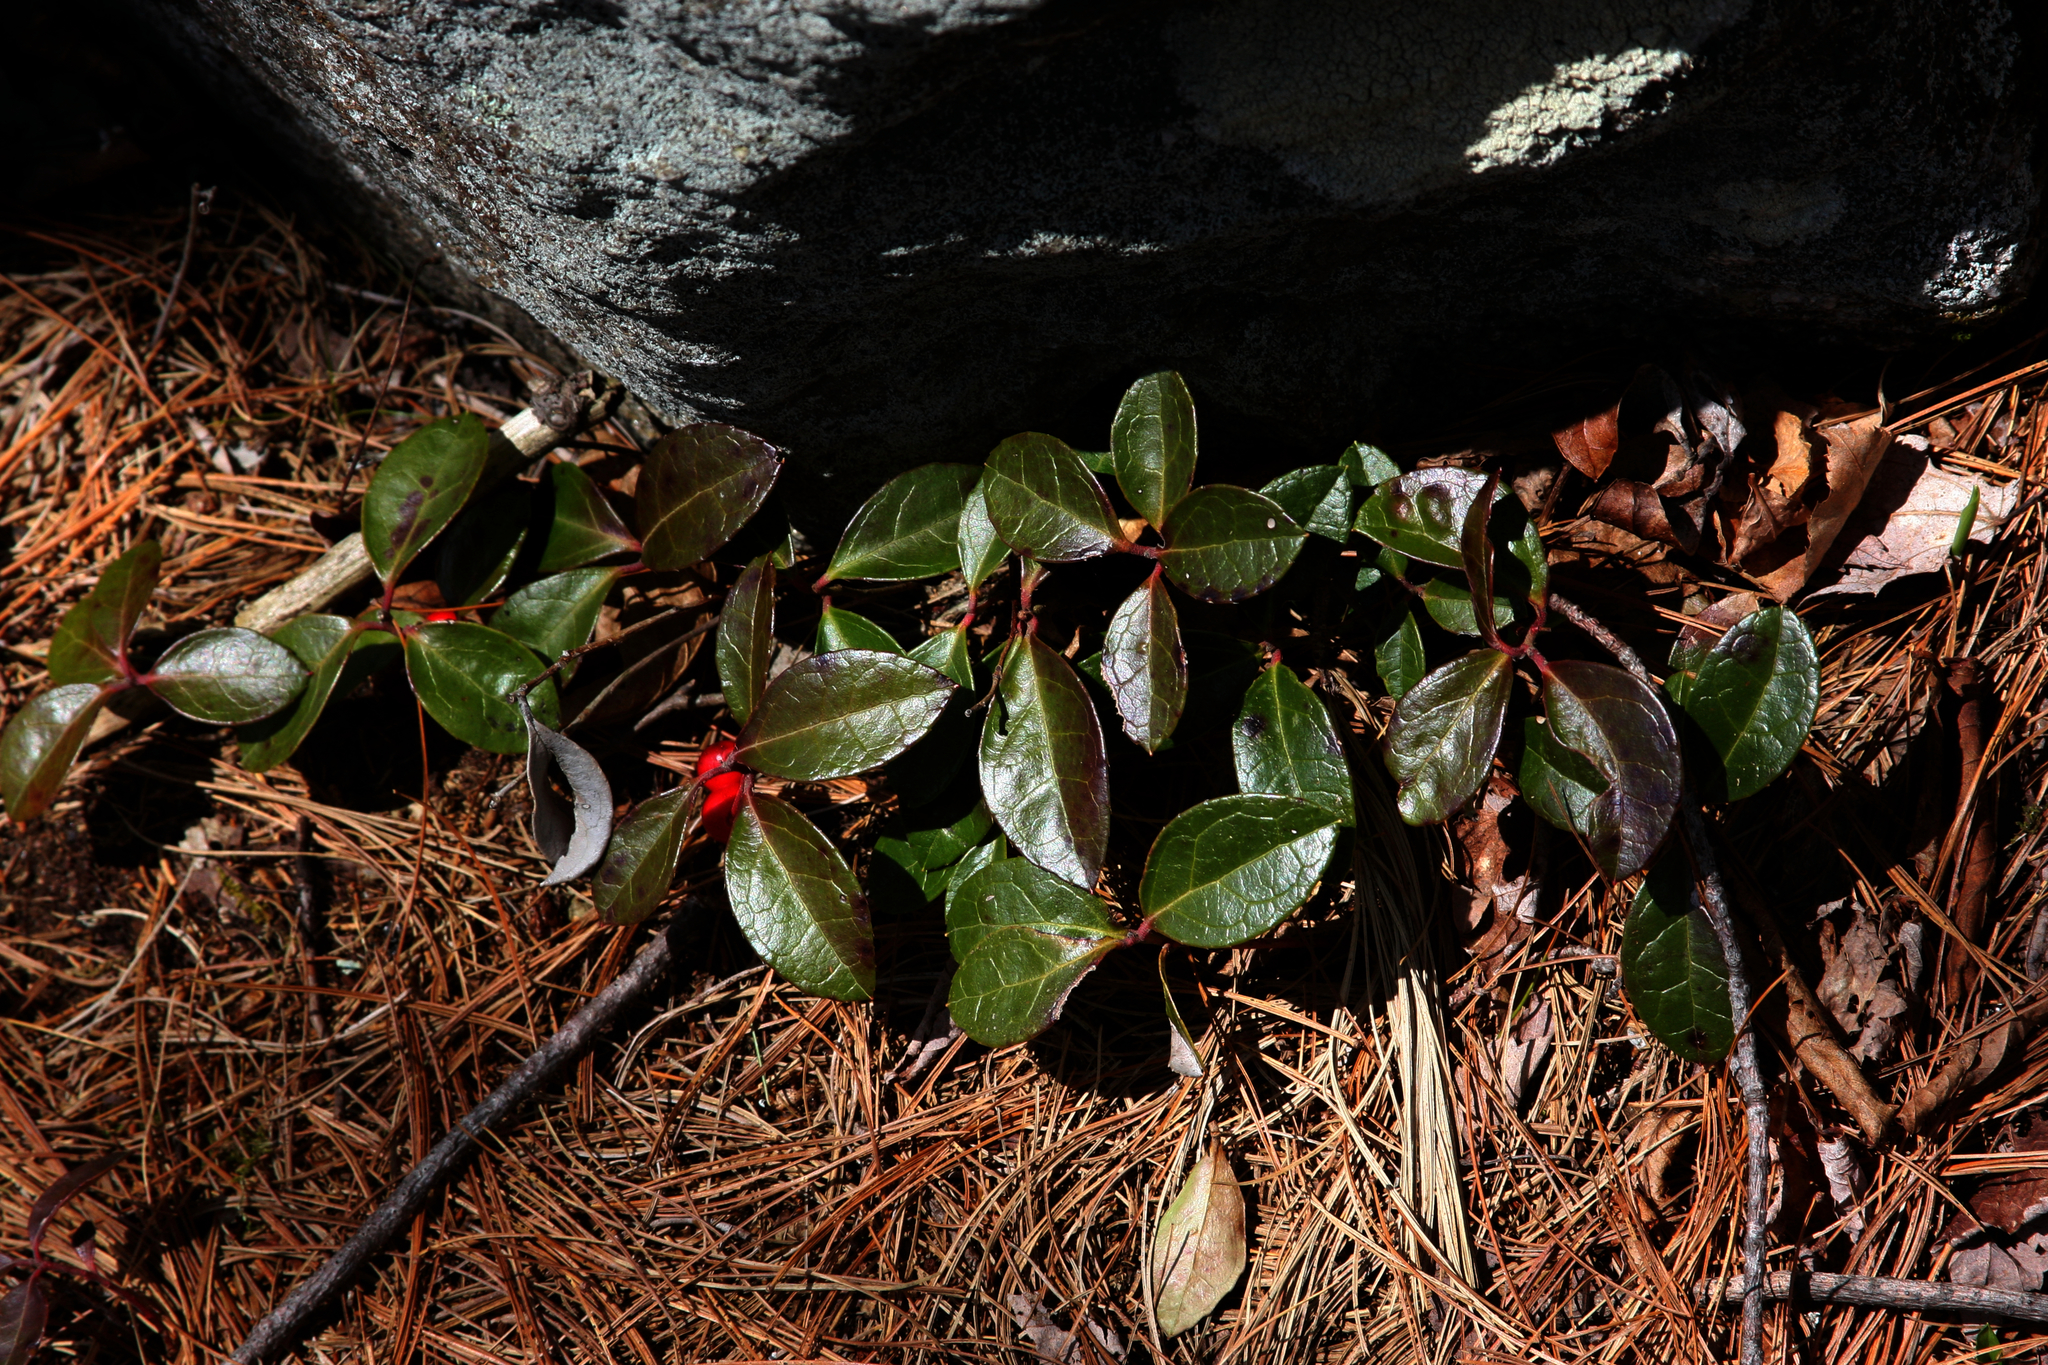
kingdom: Plantae
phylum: Tracheophyta
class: Magnoliopsida
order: Ericales
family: Ericaceae
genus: Gaultheria
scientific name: Gaultheria procumbens
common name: Checkerberry
